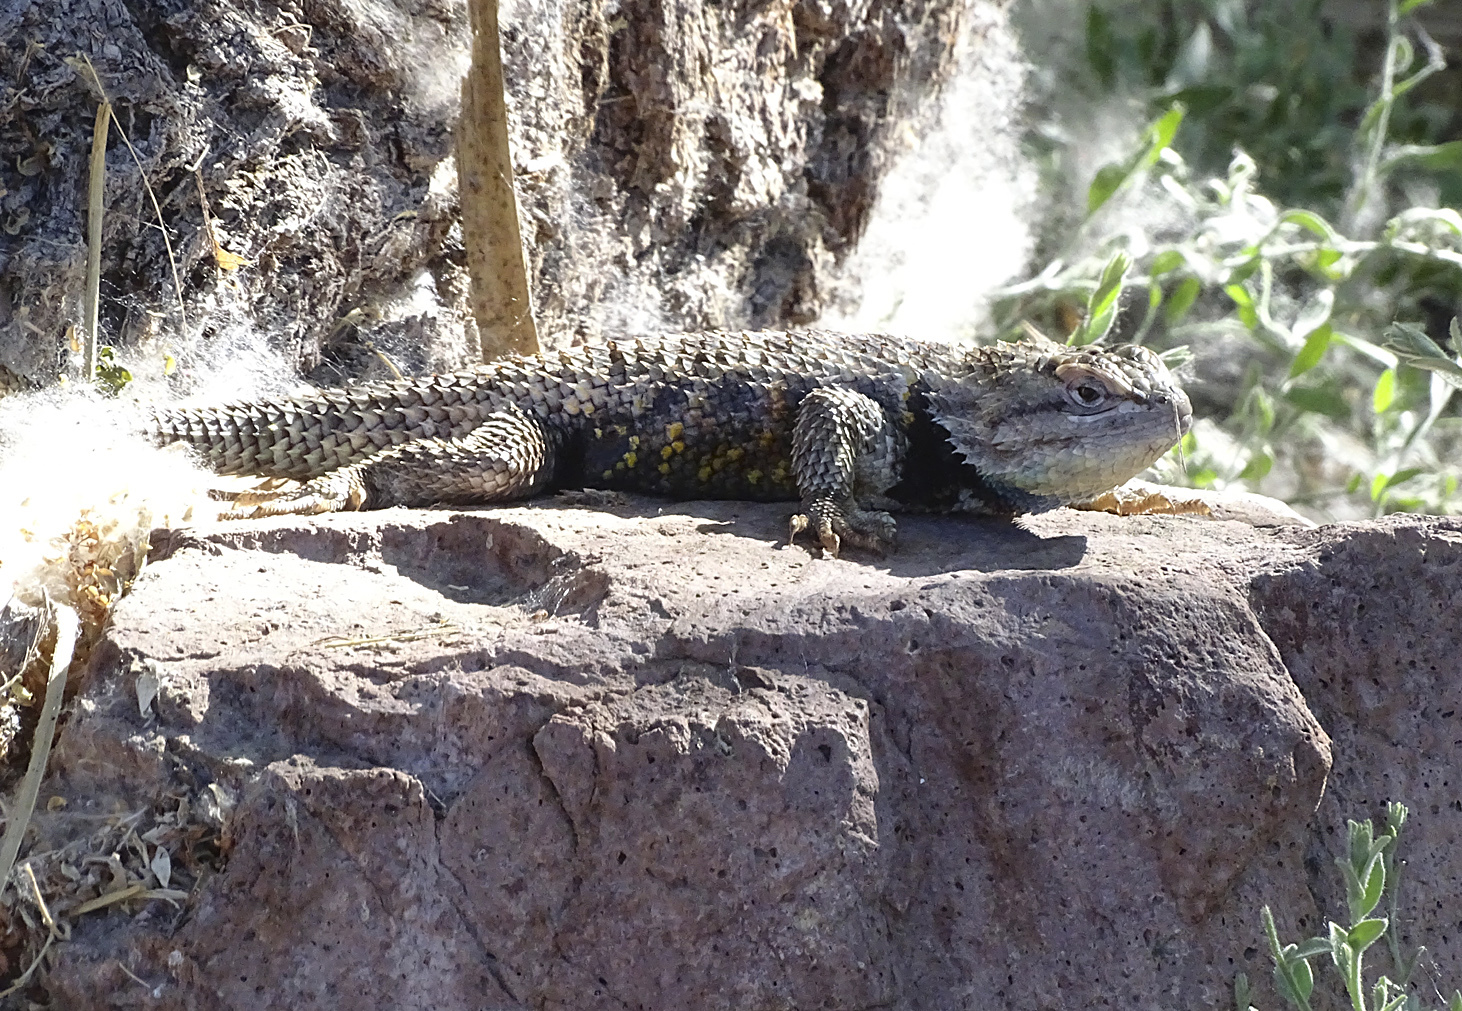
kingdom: Animalia
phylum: Chordata
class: Squamata
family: Phrynosomatidae
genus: Sceloporus
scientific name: Sceloporus uniformis
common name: Yellow-backed spiny lizard
